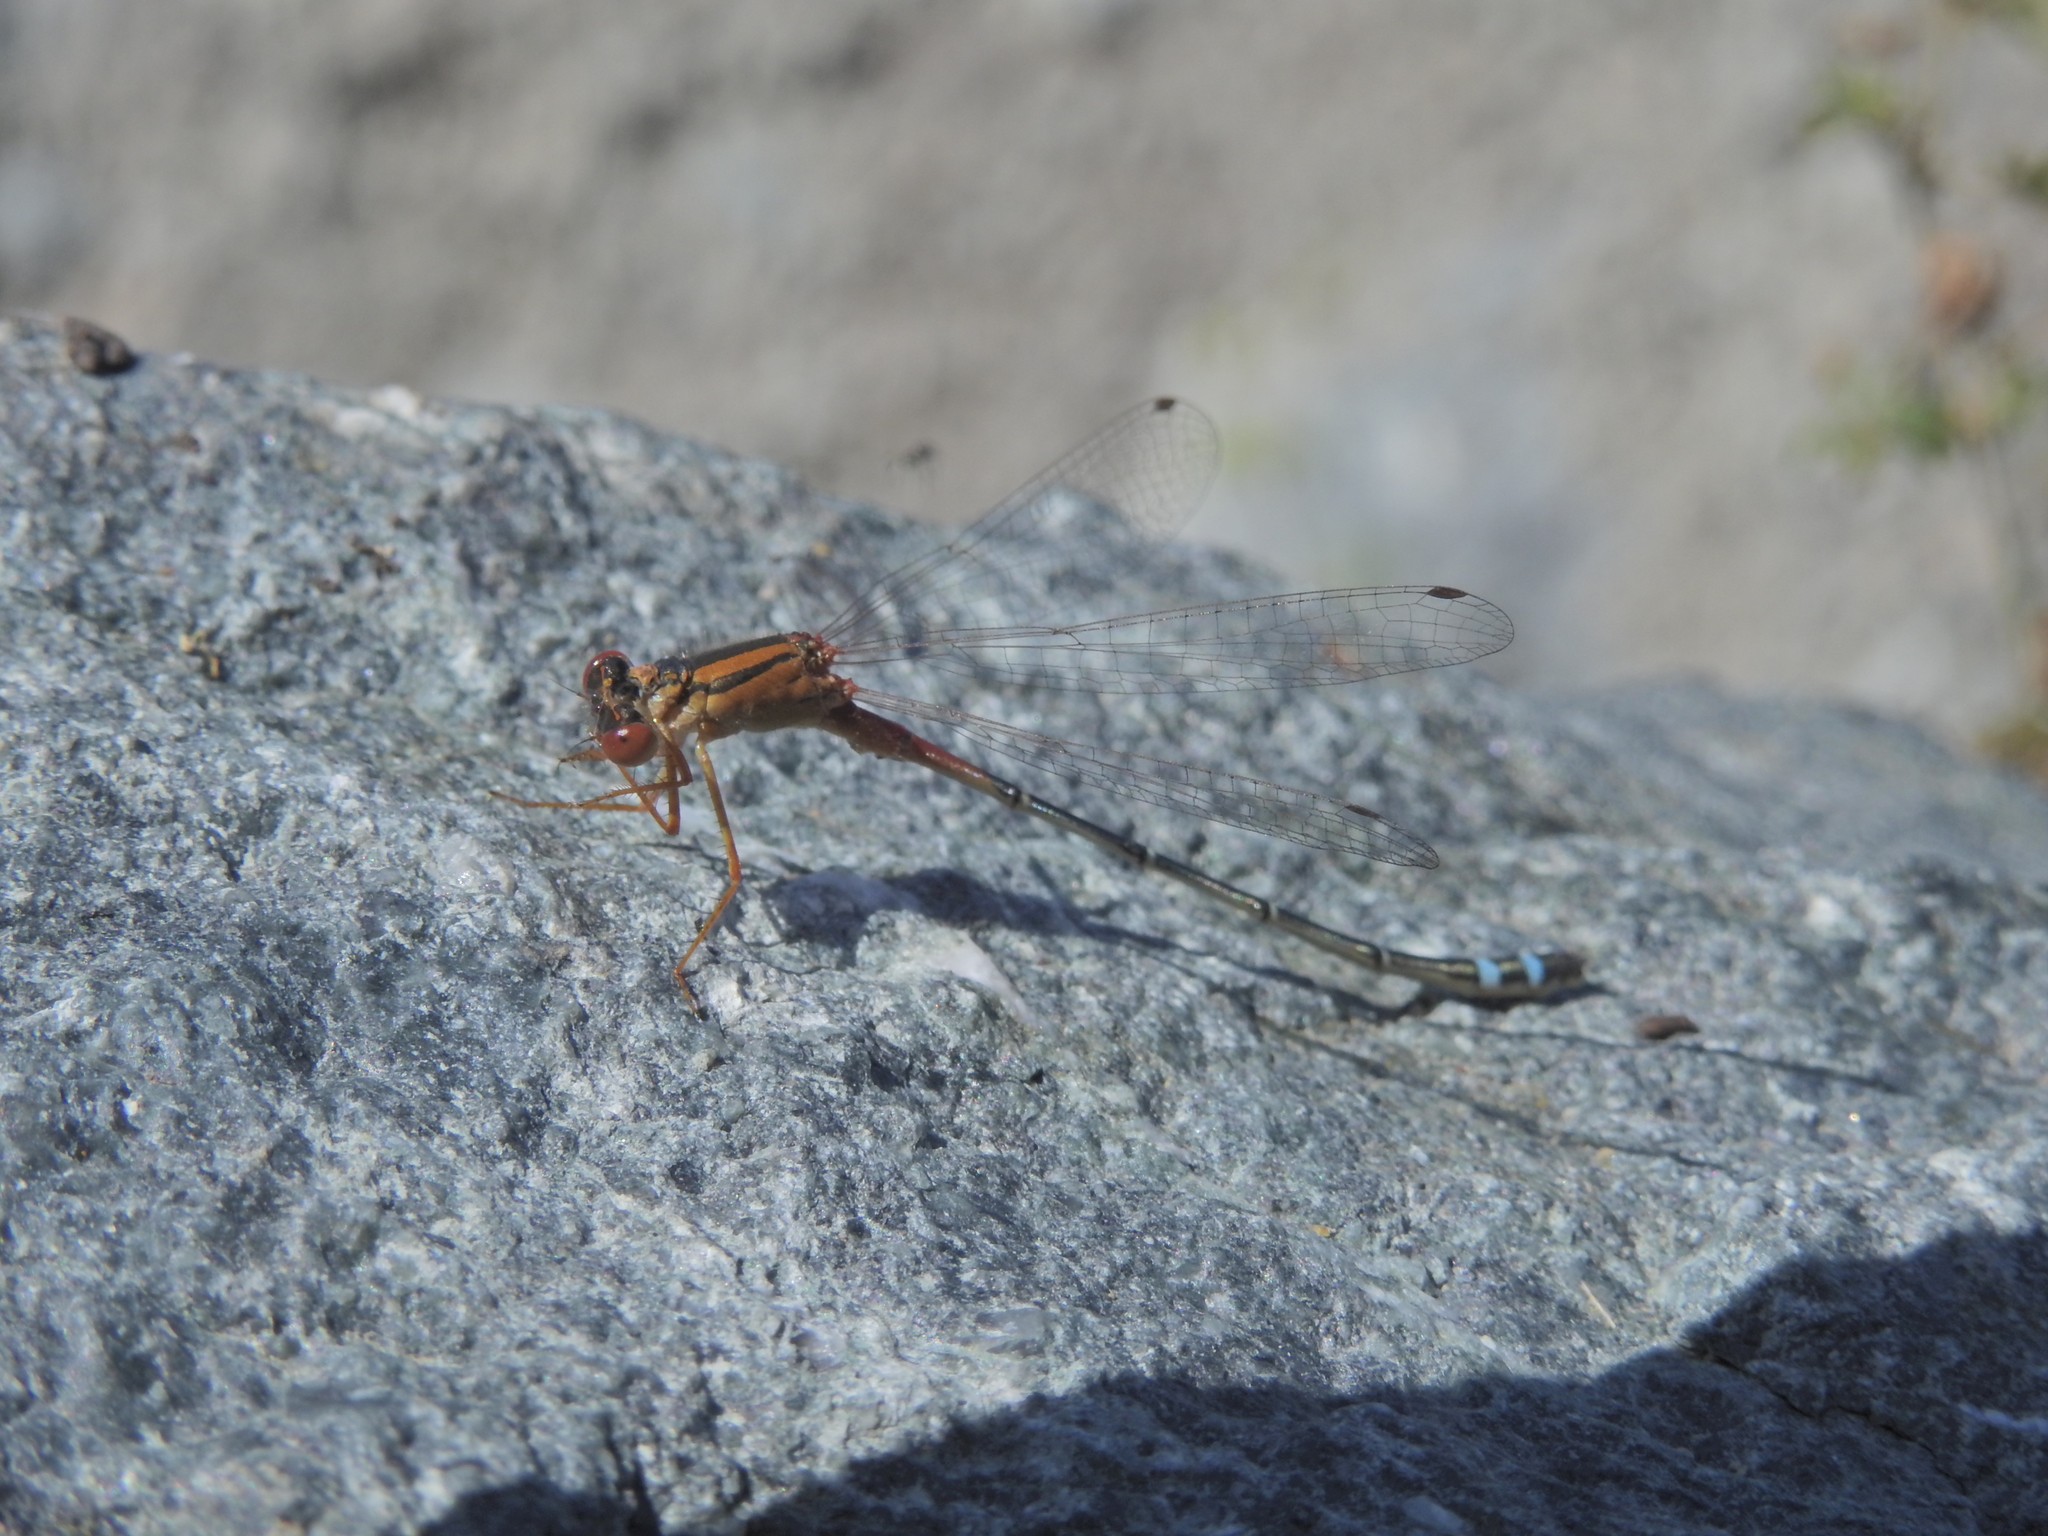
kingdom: Animalia
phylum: Arthropoda
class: Insecta
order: Odonata
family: Coenagrionidae
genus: Xanthagrion
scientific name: Xanthagrion erythroneurum
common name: Red and blue damsel
